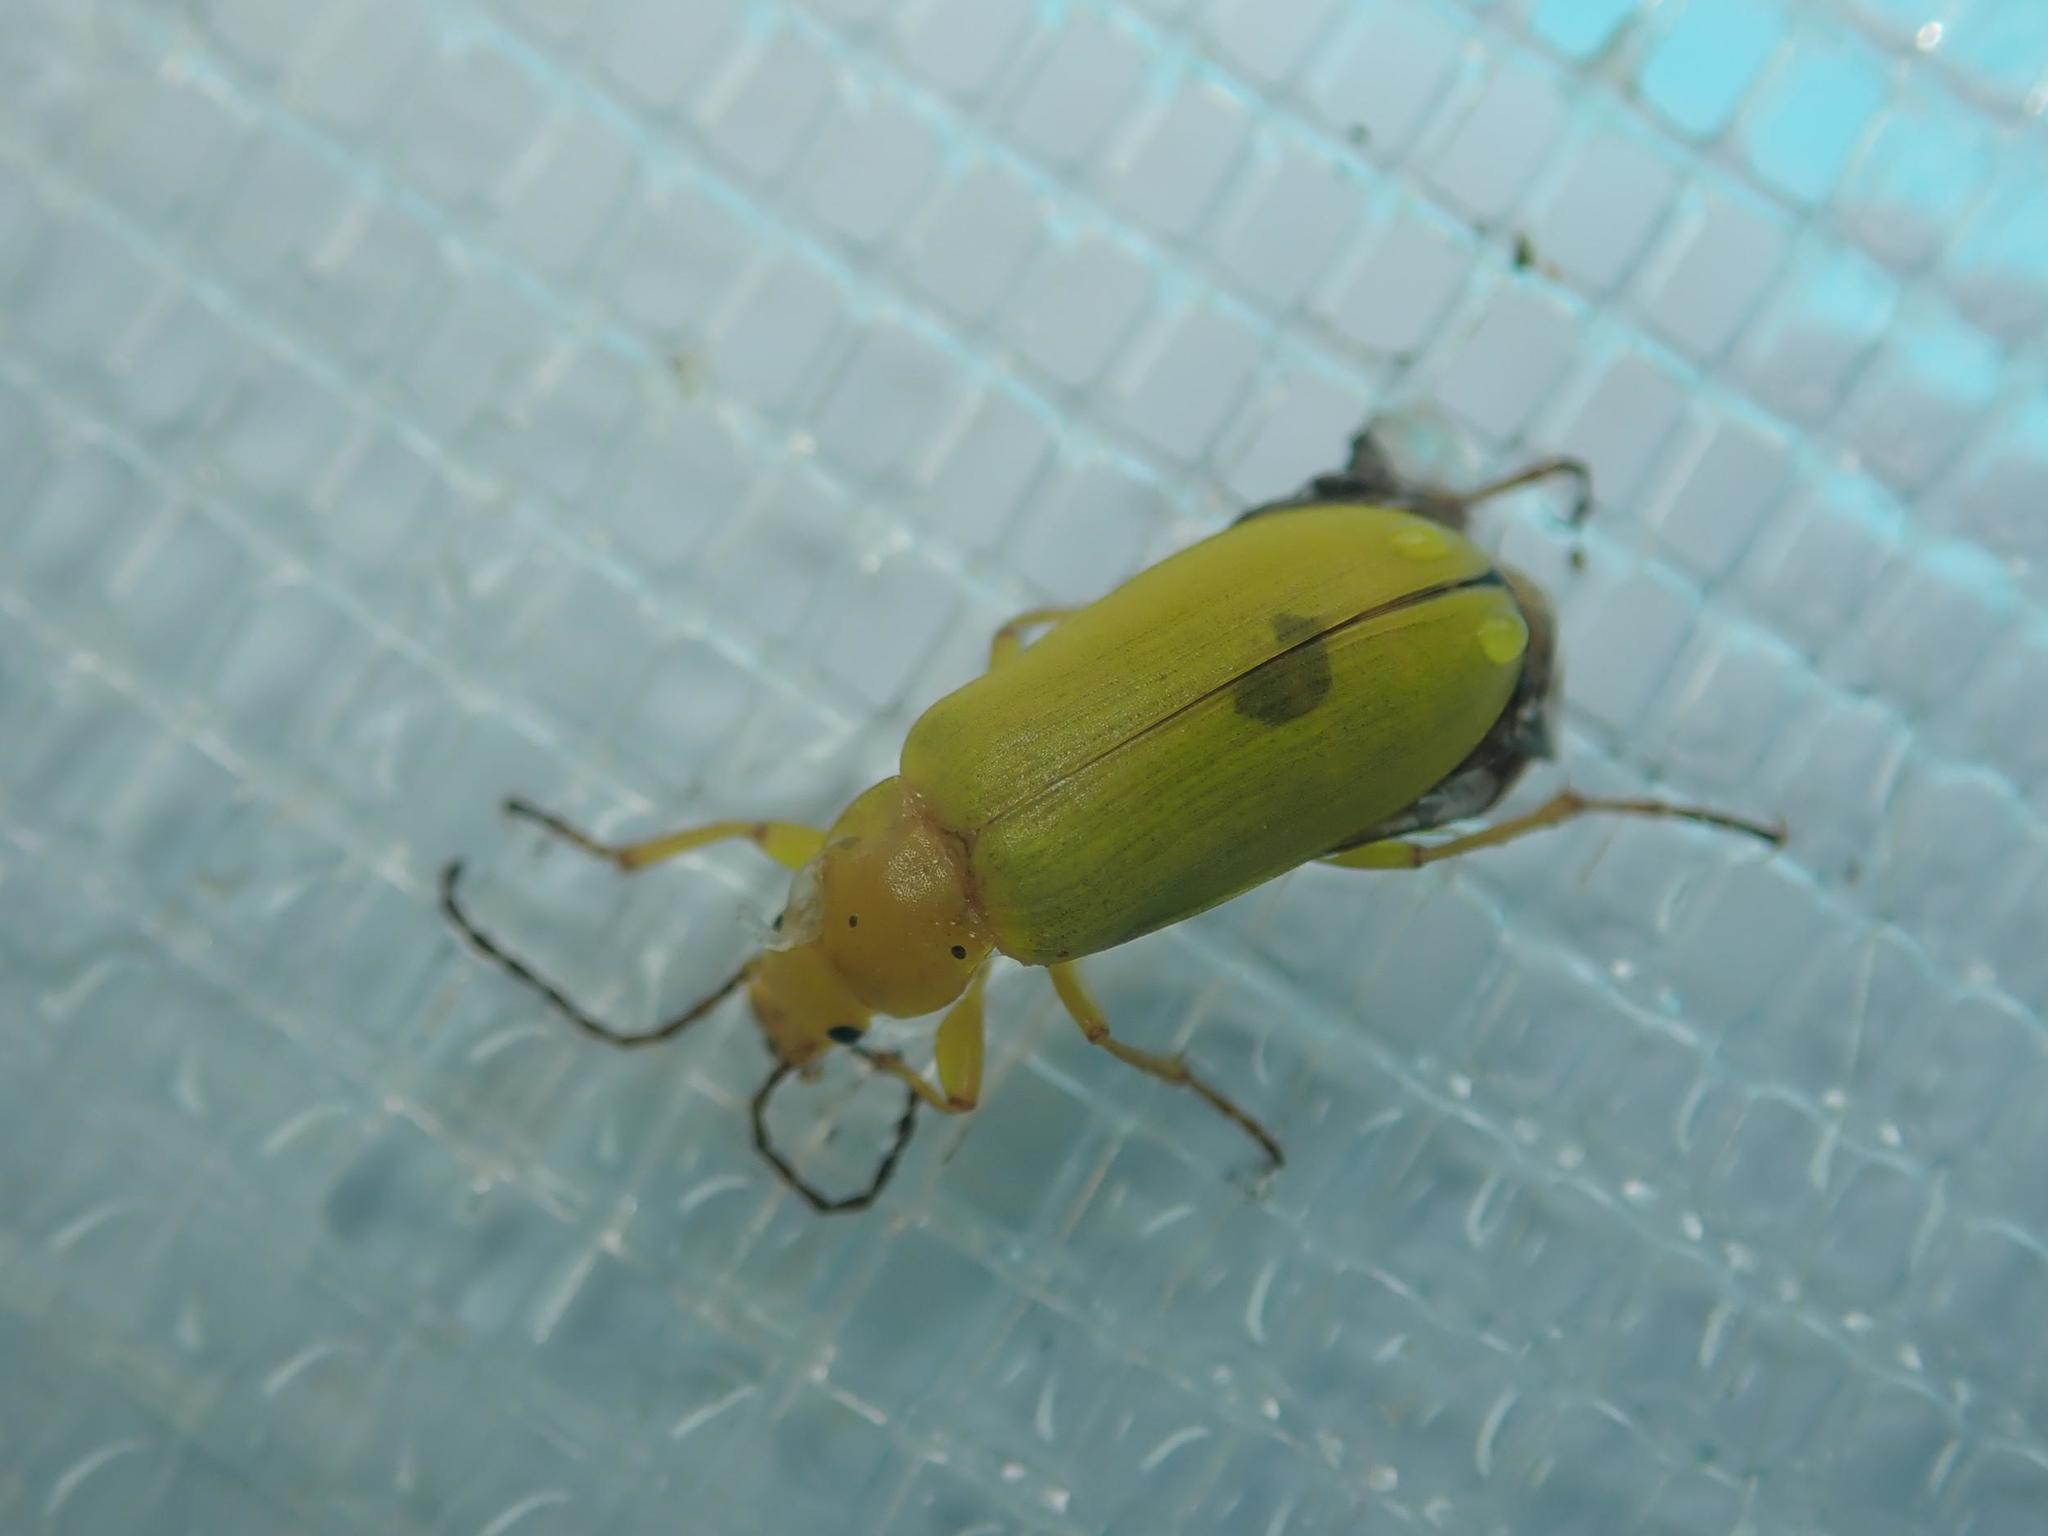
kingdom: Animalia
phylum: Arthropoda
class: Insecta
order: Coleoptera
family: Tenebrionidae
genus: Cteniopus
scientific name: Cteniopus sulphureus
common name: Sulphur beetle
